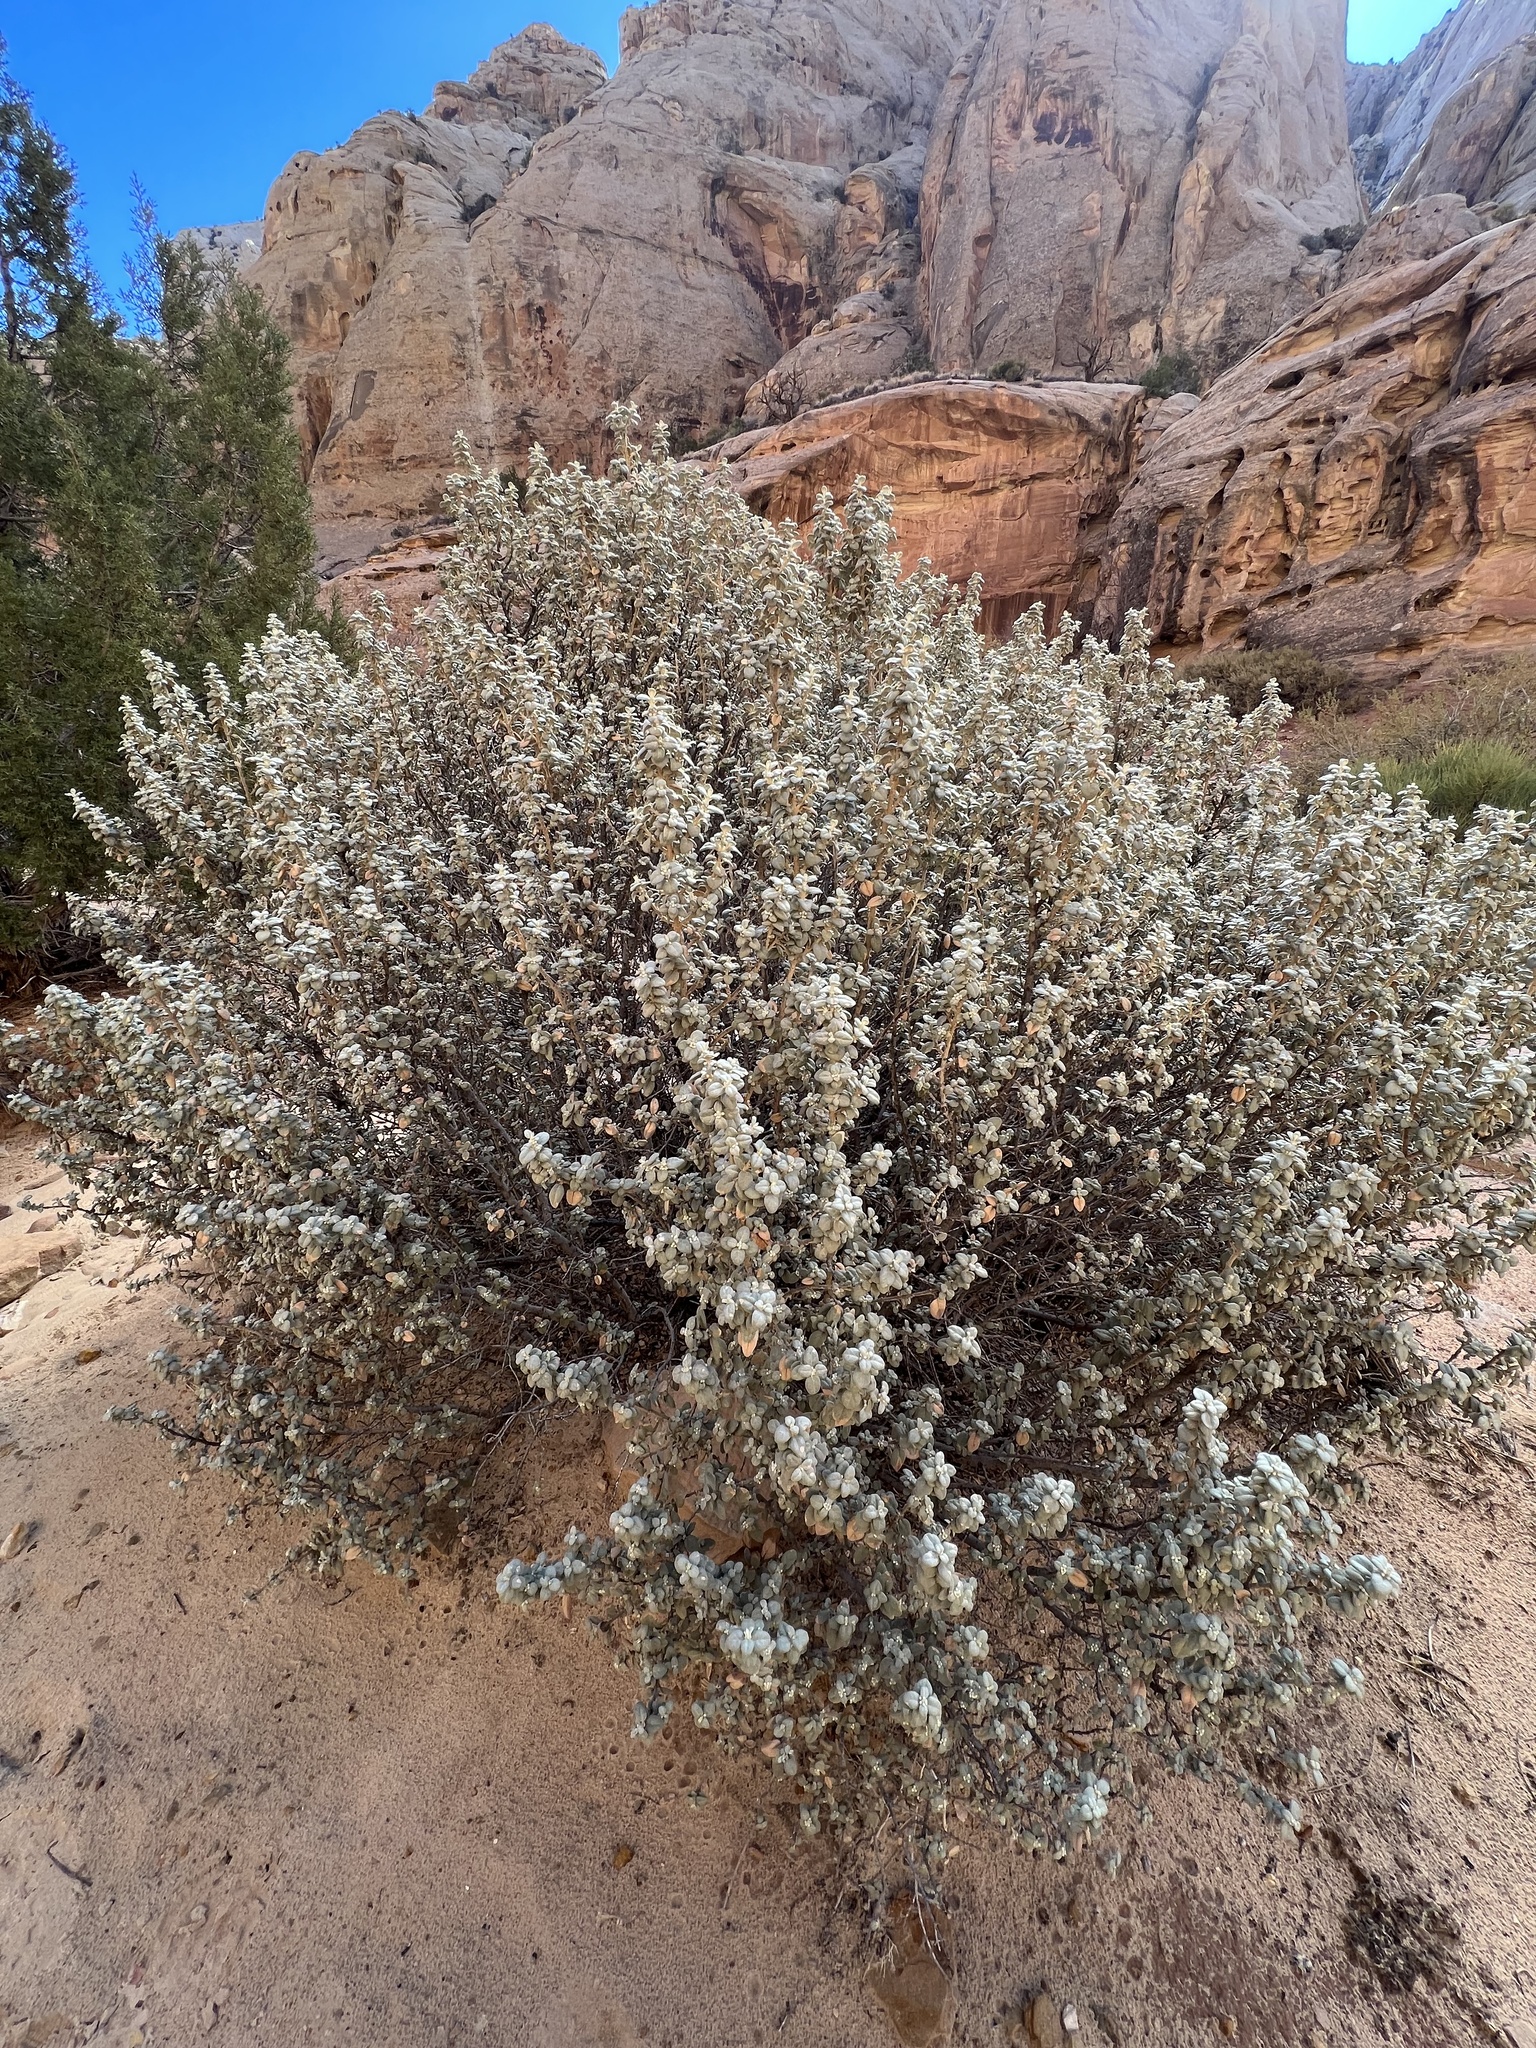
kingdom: Plantae
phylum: Tracheophyta
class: Magnoliopsida
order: Rosales
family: Elaeagnaceae
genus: Shepherdia
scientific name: Shepherdia rotundifolia
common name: Silverscale
